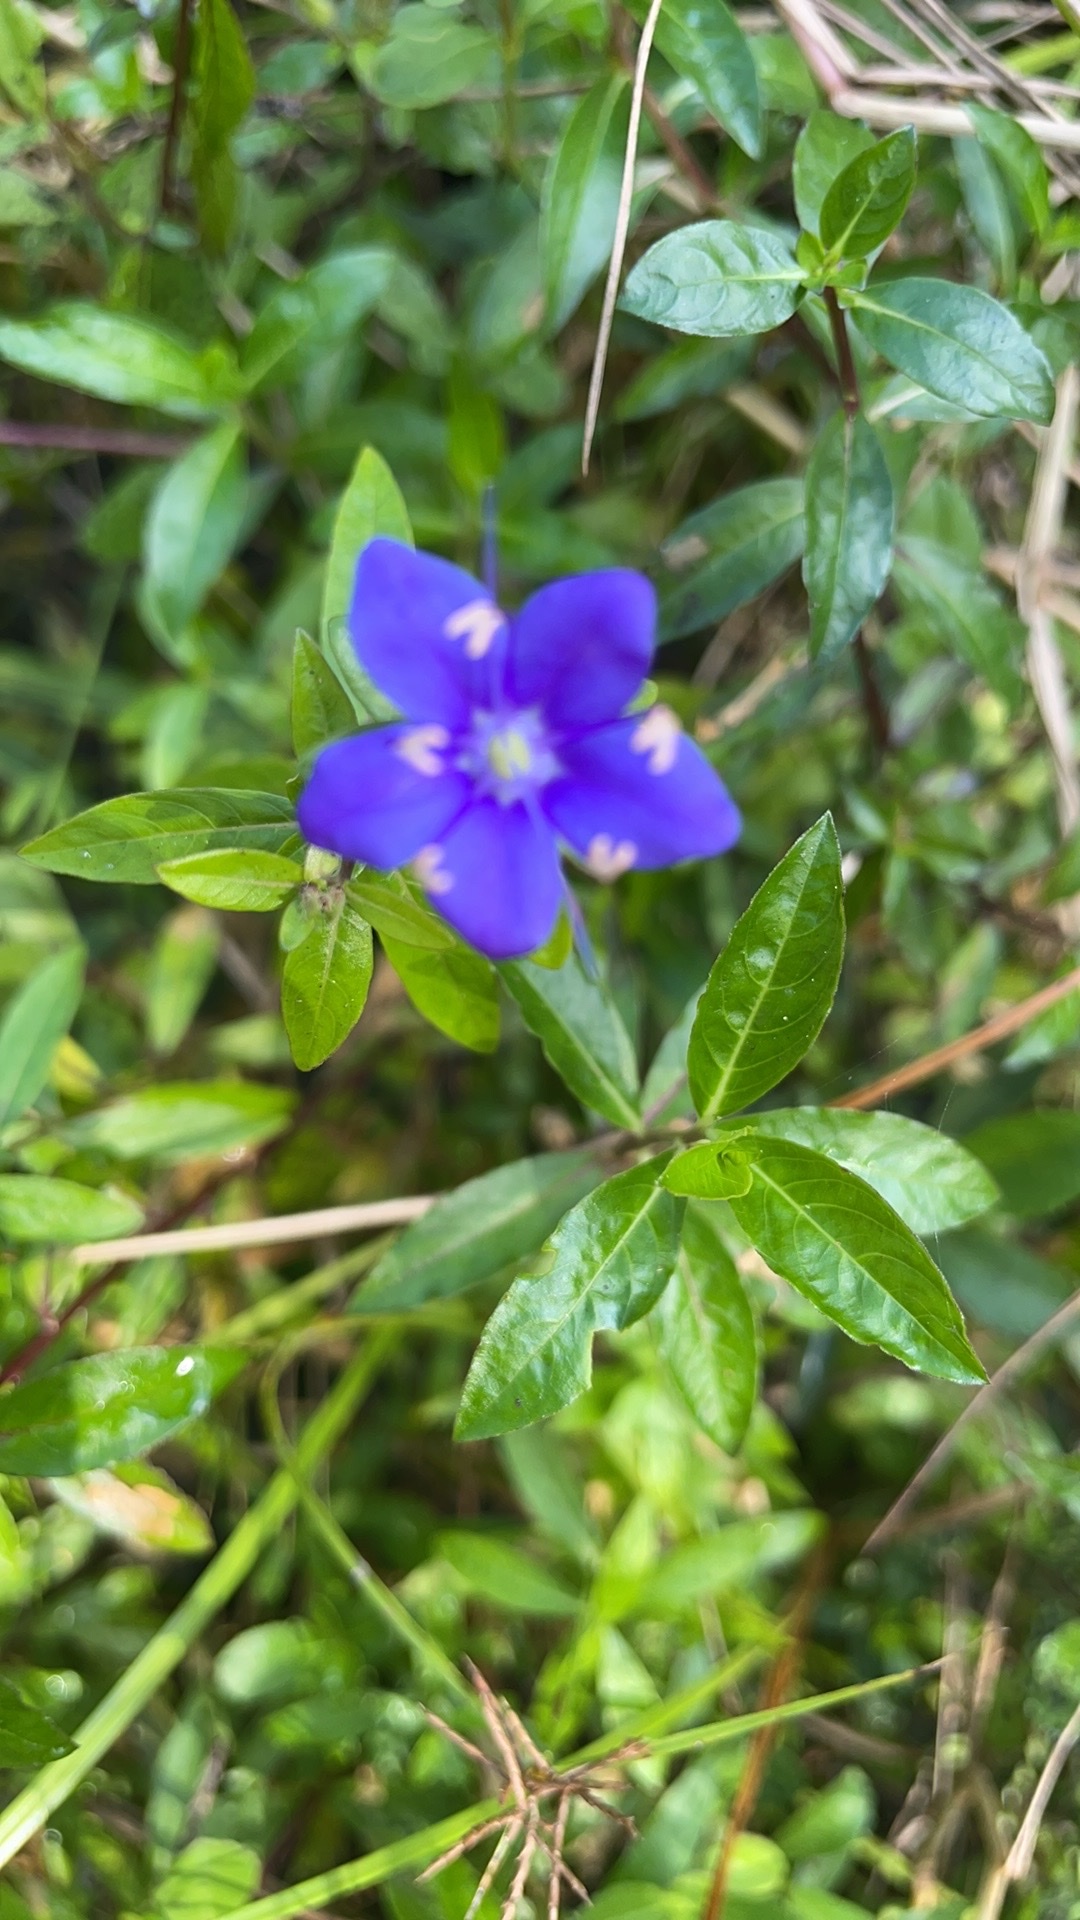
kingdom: Plantae
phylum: Tracheophyta
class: Magnoliopsida
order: Solanales
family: Hydroleaceae
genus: Hydrolea
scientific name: Hydrolea corymbosa
